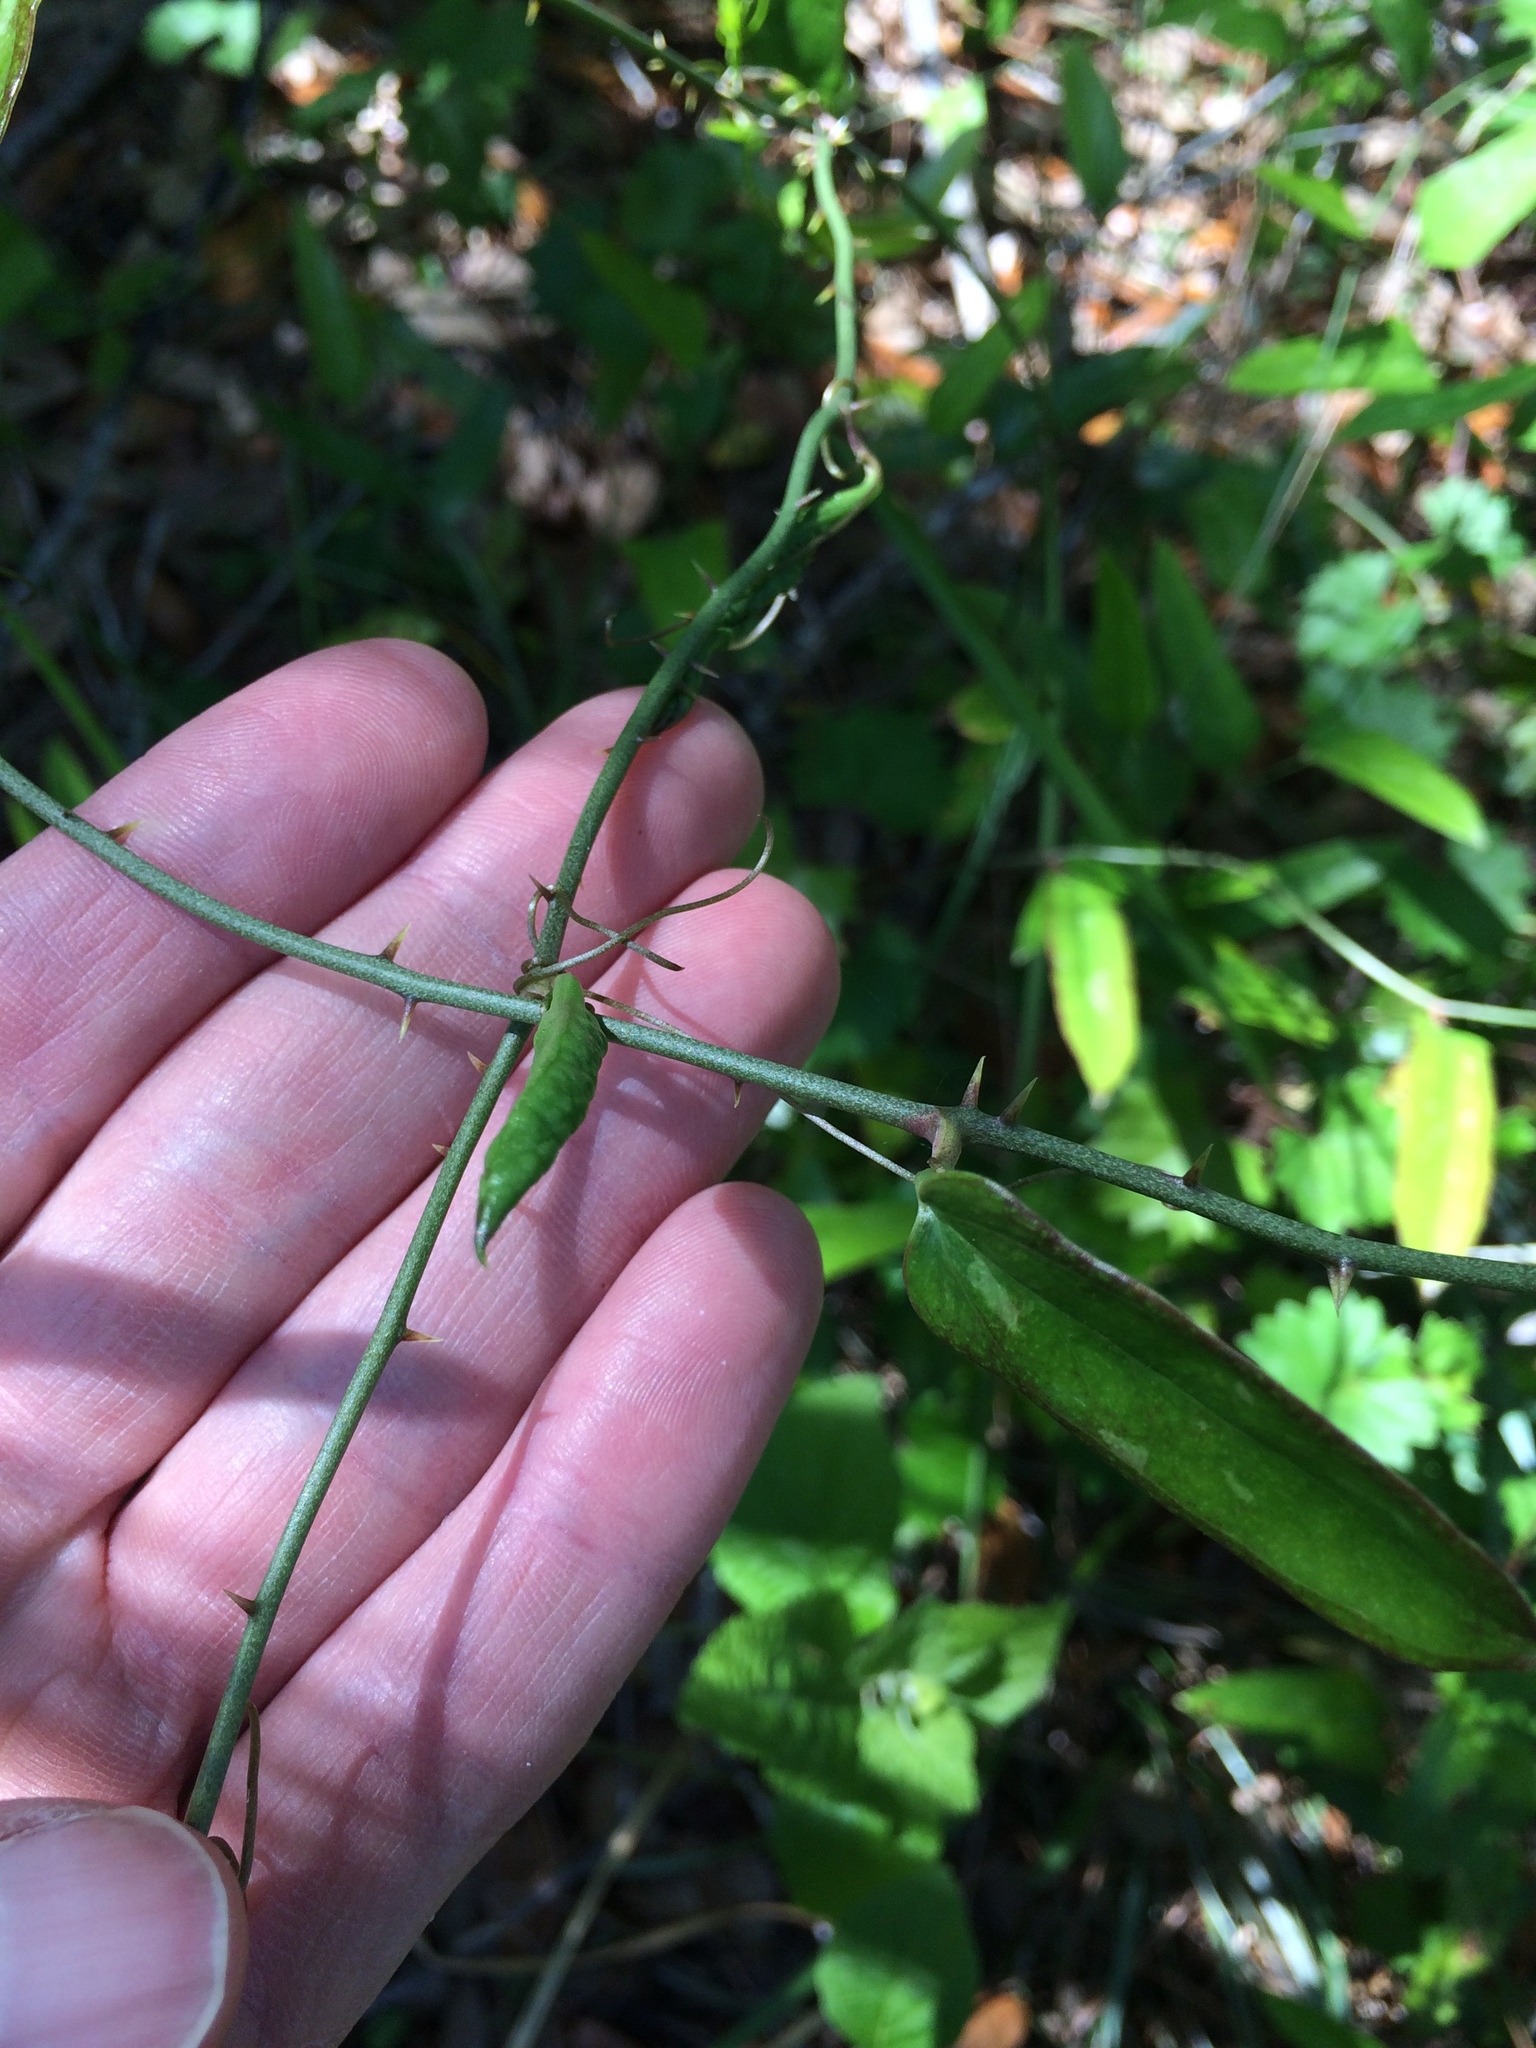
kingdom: Plantae
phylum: Tracheophyta
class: Liliopsida
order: Liliales
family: Smilacaceae
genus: Smilax
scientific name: Smilax auriculata
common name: Wild bamboo
